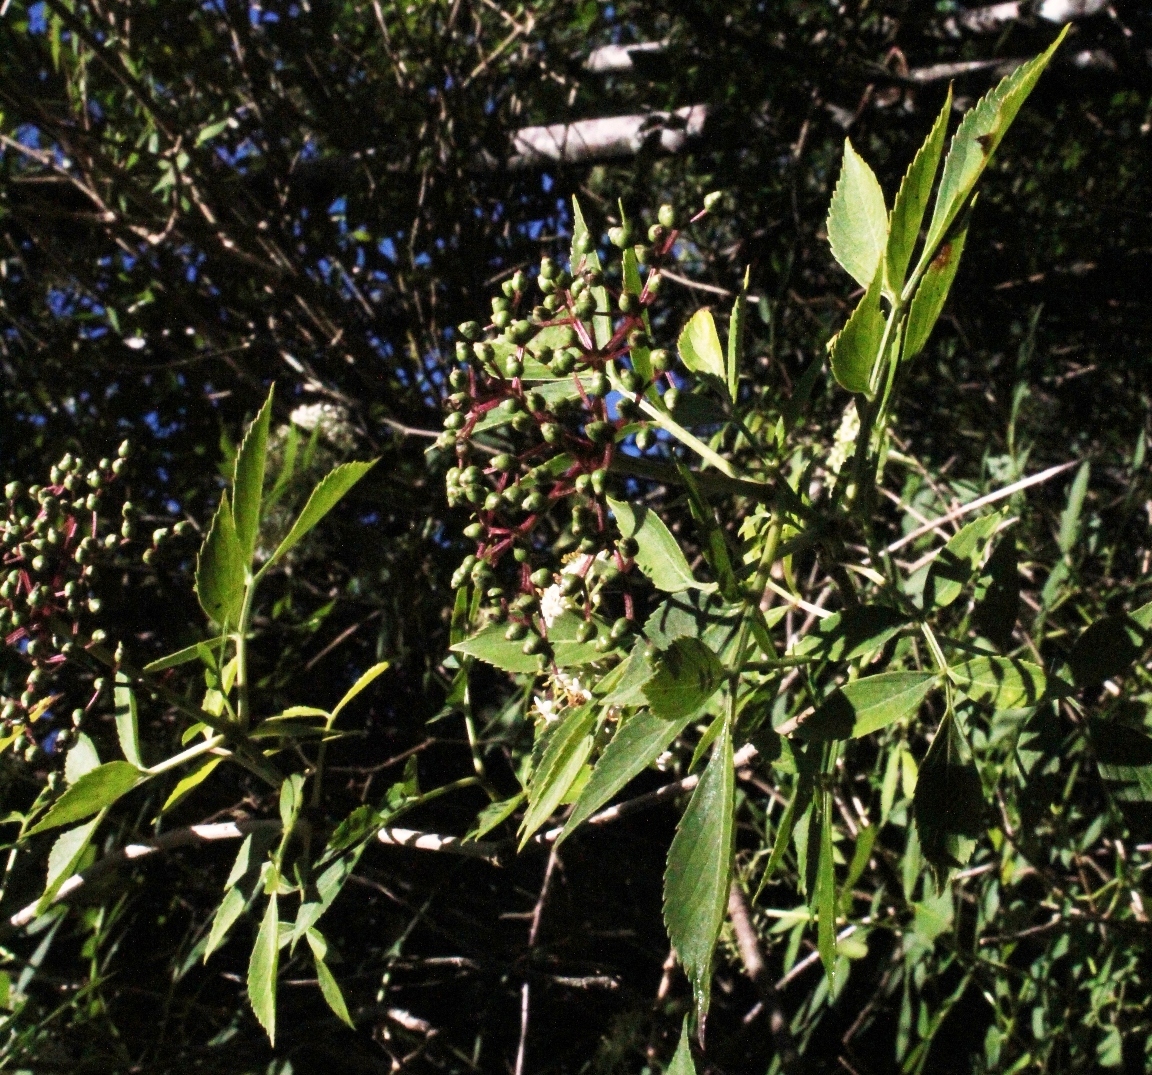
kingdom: Plantae
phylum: Tracheophyta
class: Magnoliopsida
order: Dipsacales
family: Viburnaceae
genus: Sambucus
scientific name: Sambucus nigra
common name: Elder
